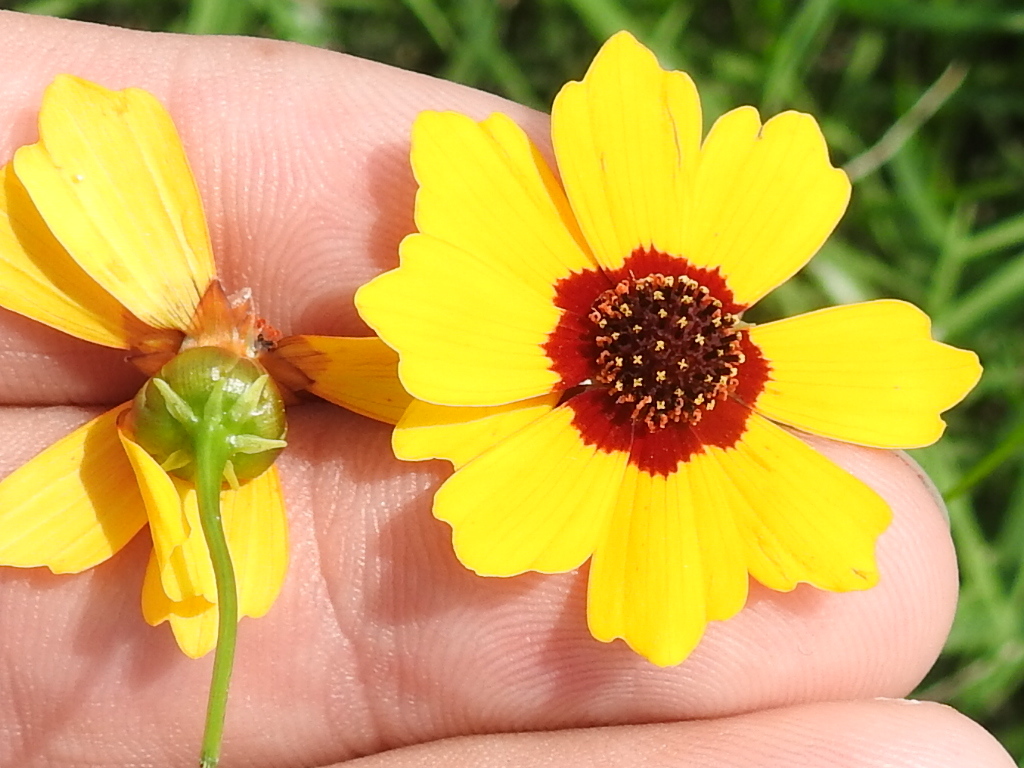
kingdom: Plantae
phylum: Tracheophyta
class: Magnoliopsida
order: Asterales
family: Asteraceae
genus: Coreopsis
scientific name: Coreopsis tinctoria
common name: Garden tickseed
